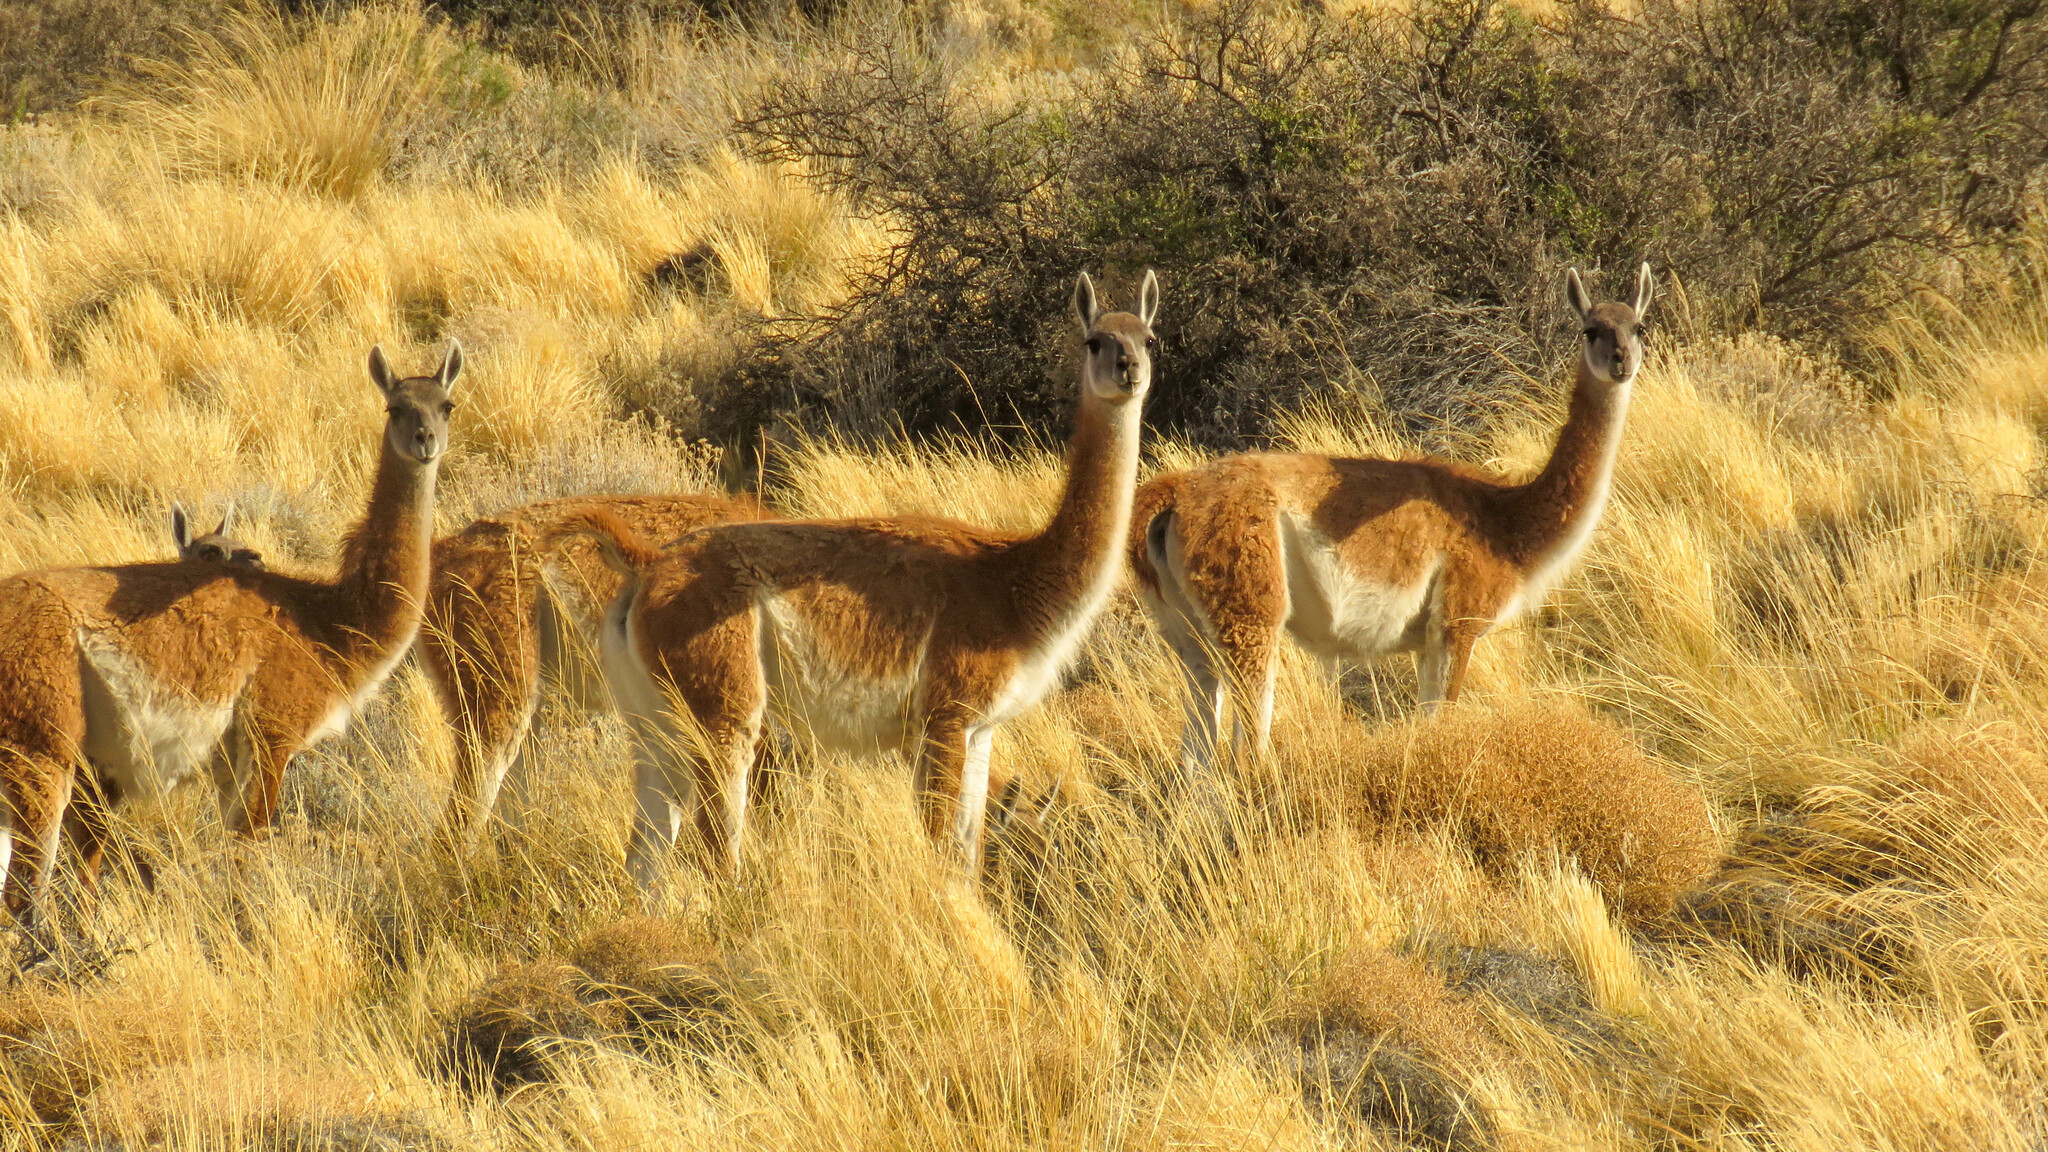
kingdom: Animalia
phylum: Chordata
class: Mammalia
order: Artiodactyla
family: Camelidae
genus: Lama
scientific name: Lama glama
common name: Llama
